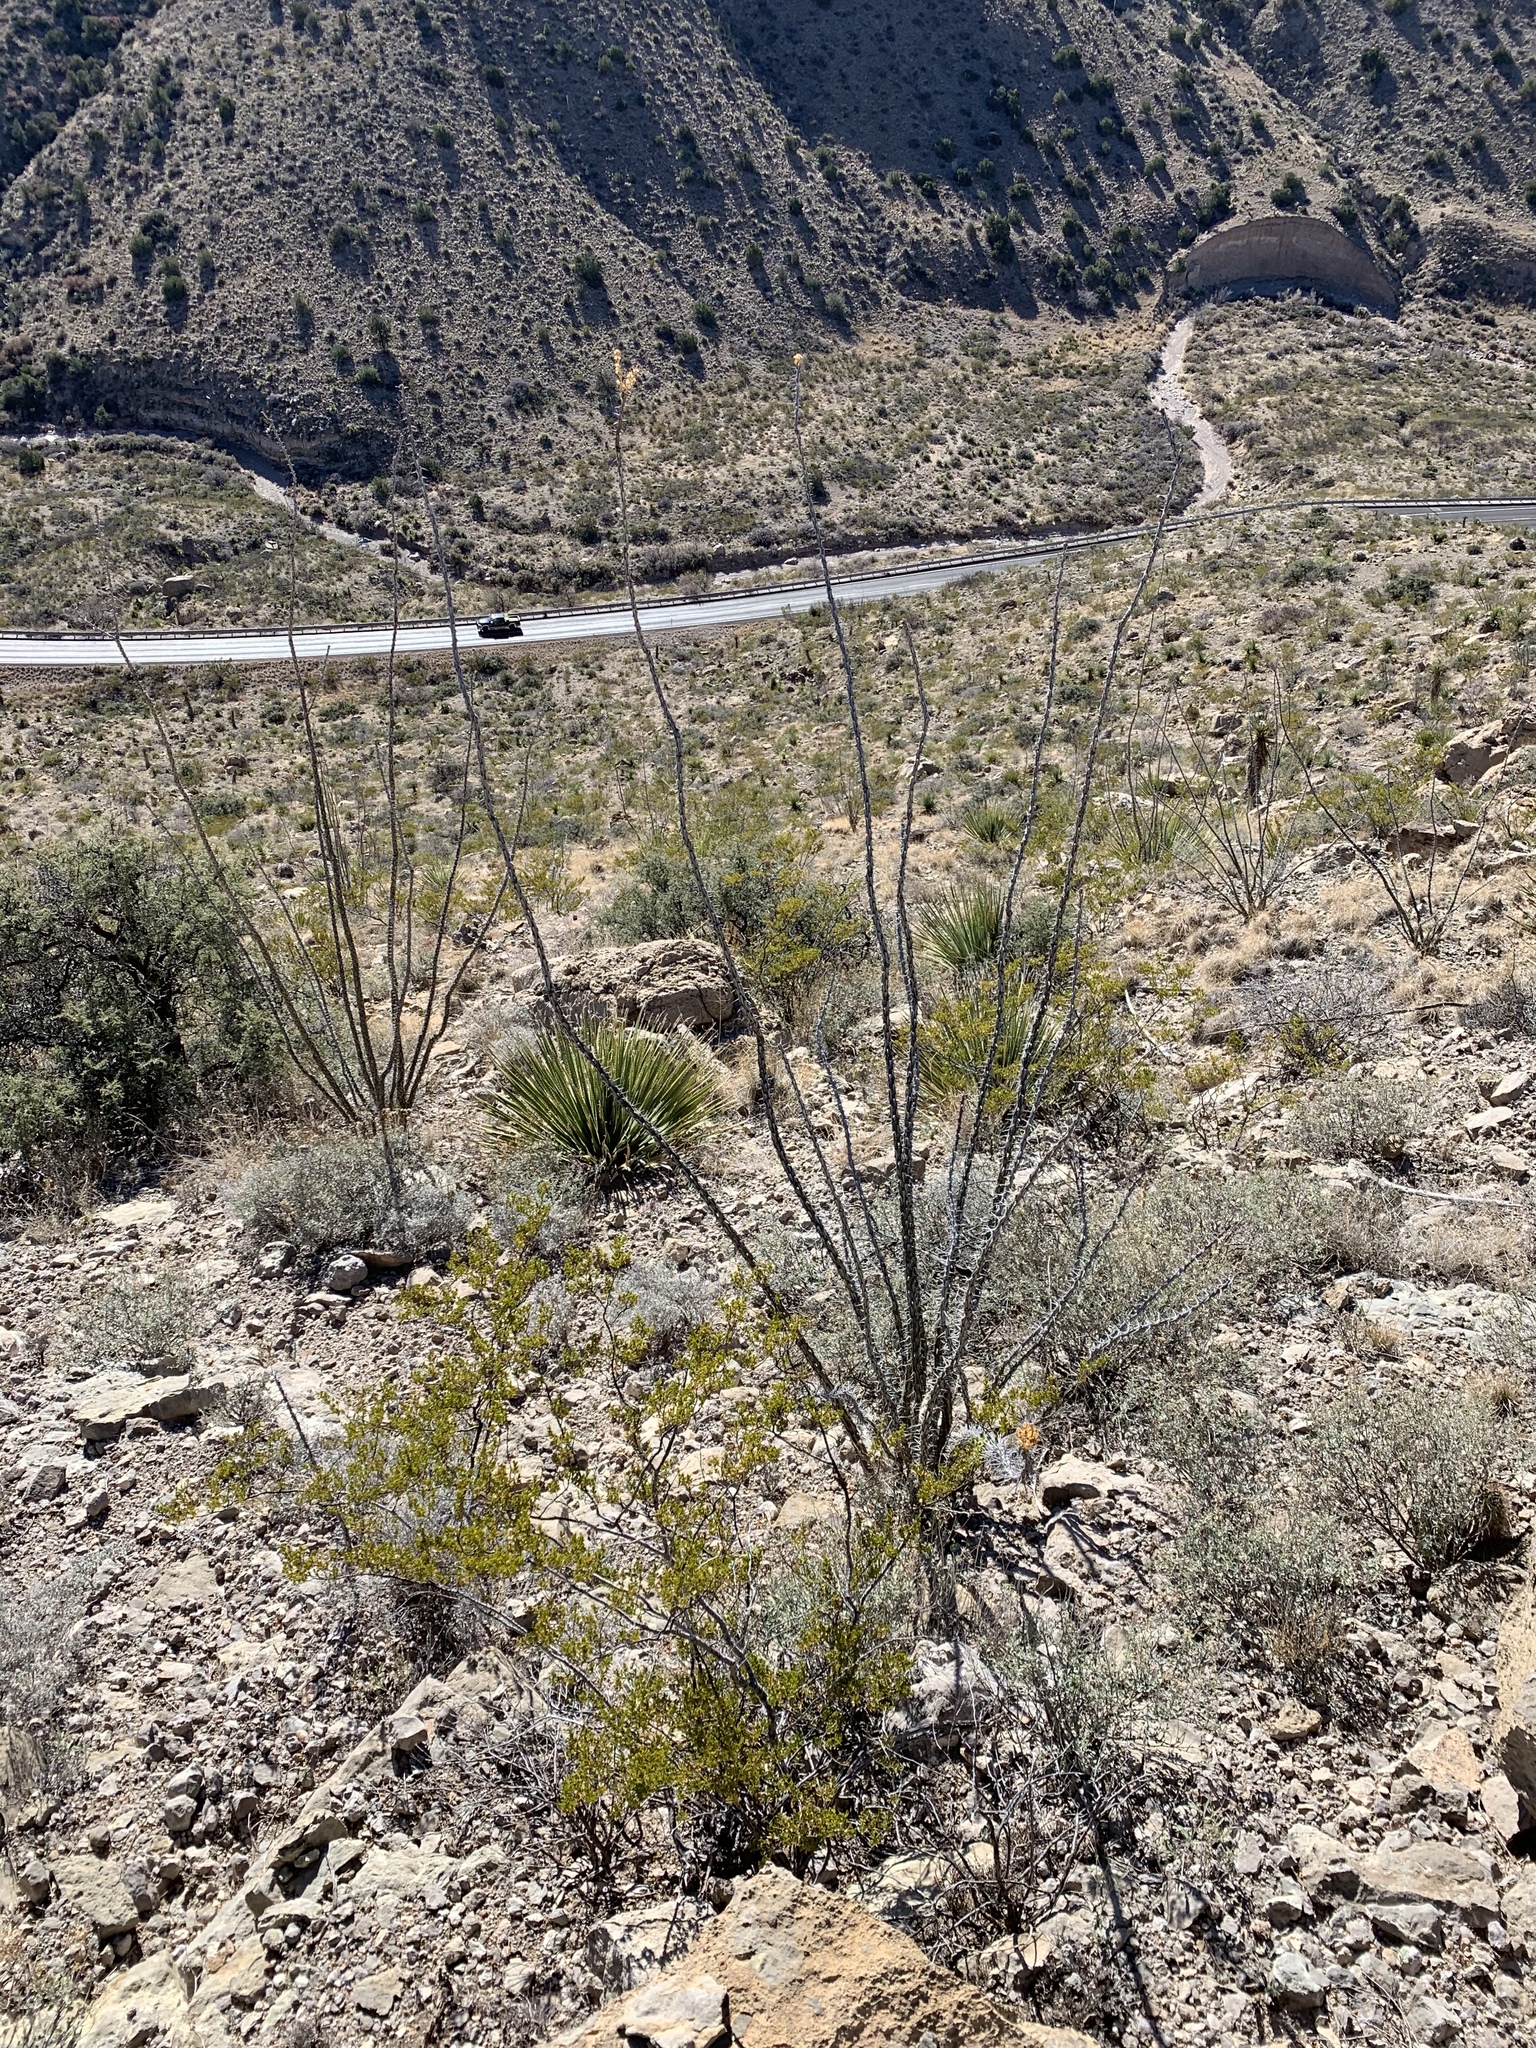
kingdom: Plantae
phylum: Tracheophyta
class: Magnoliopsida
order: Ericales
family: Fouquieriaceae
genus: Fouquieria
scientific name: Fouquieria splendens
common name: Vine-cactus
